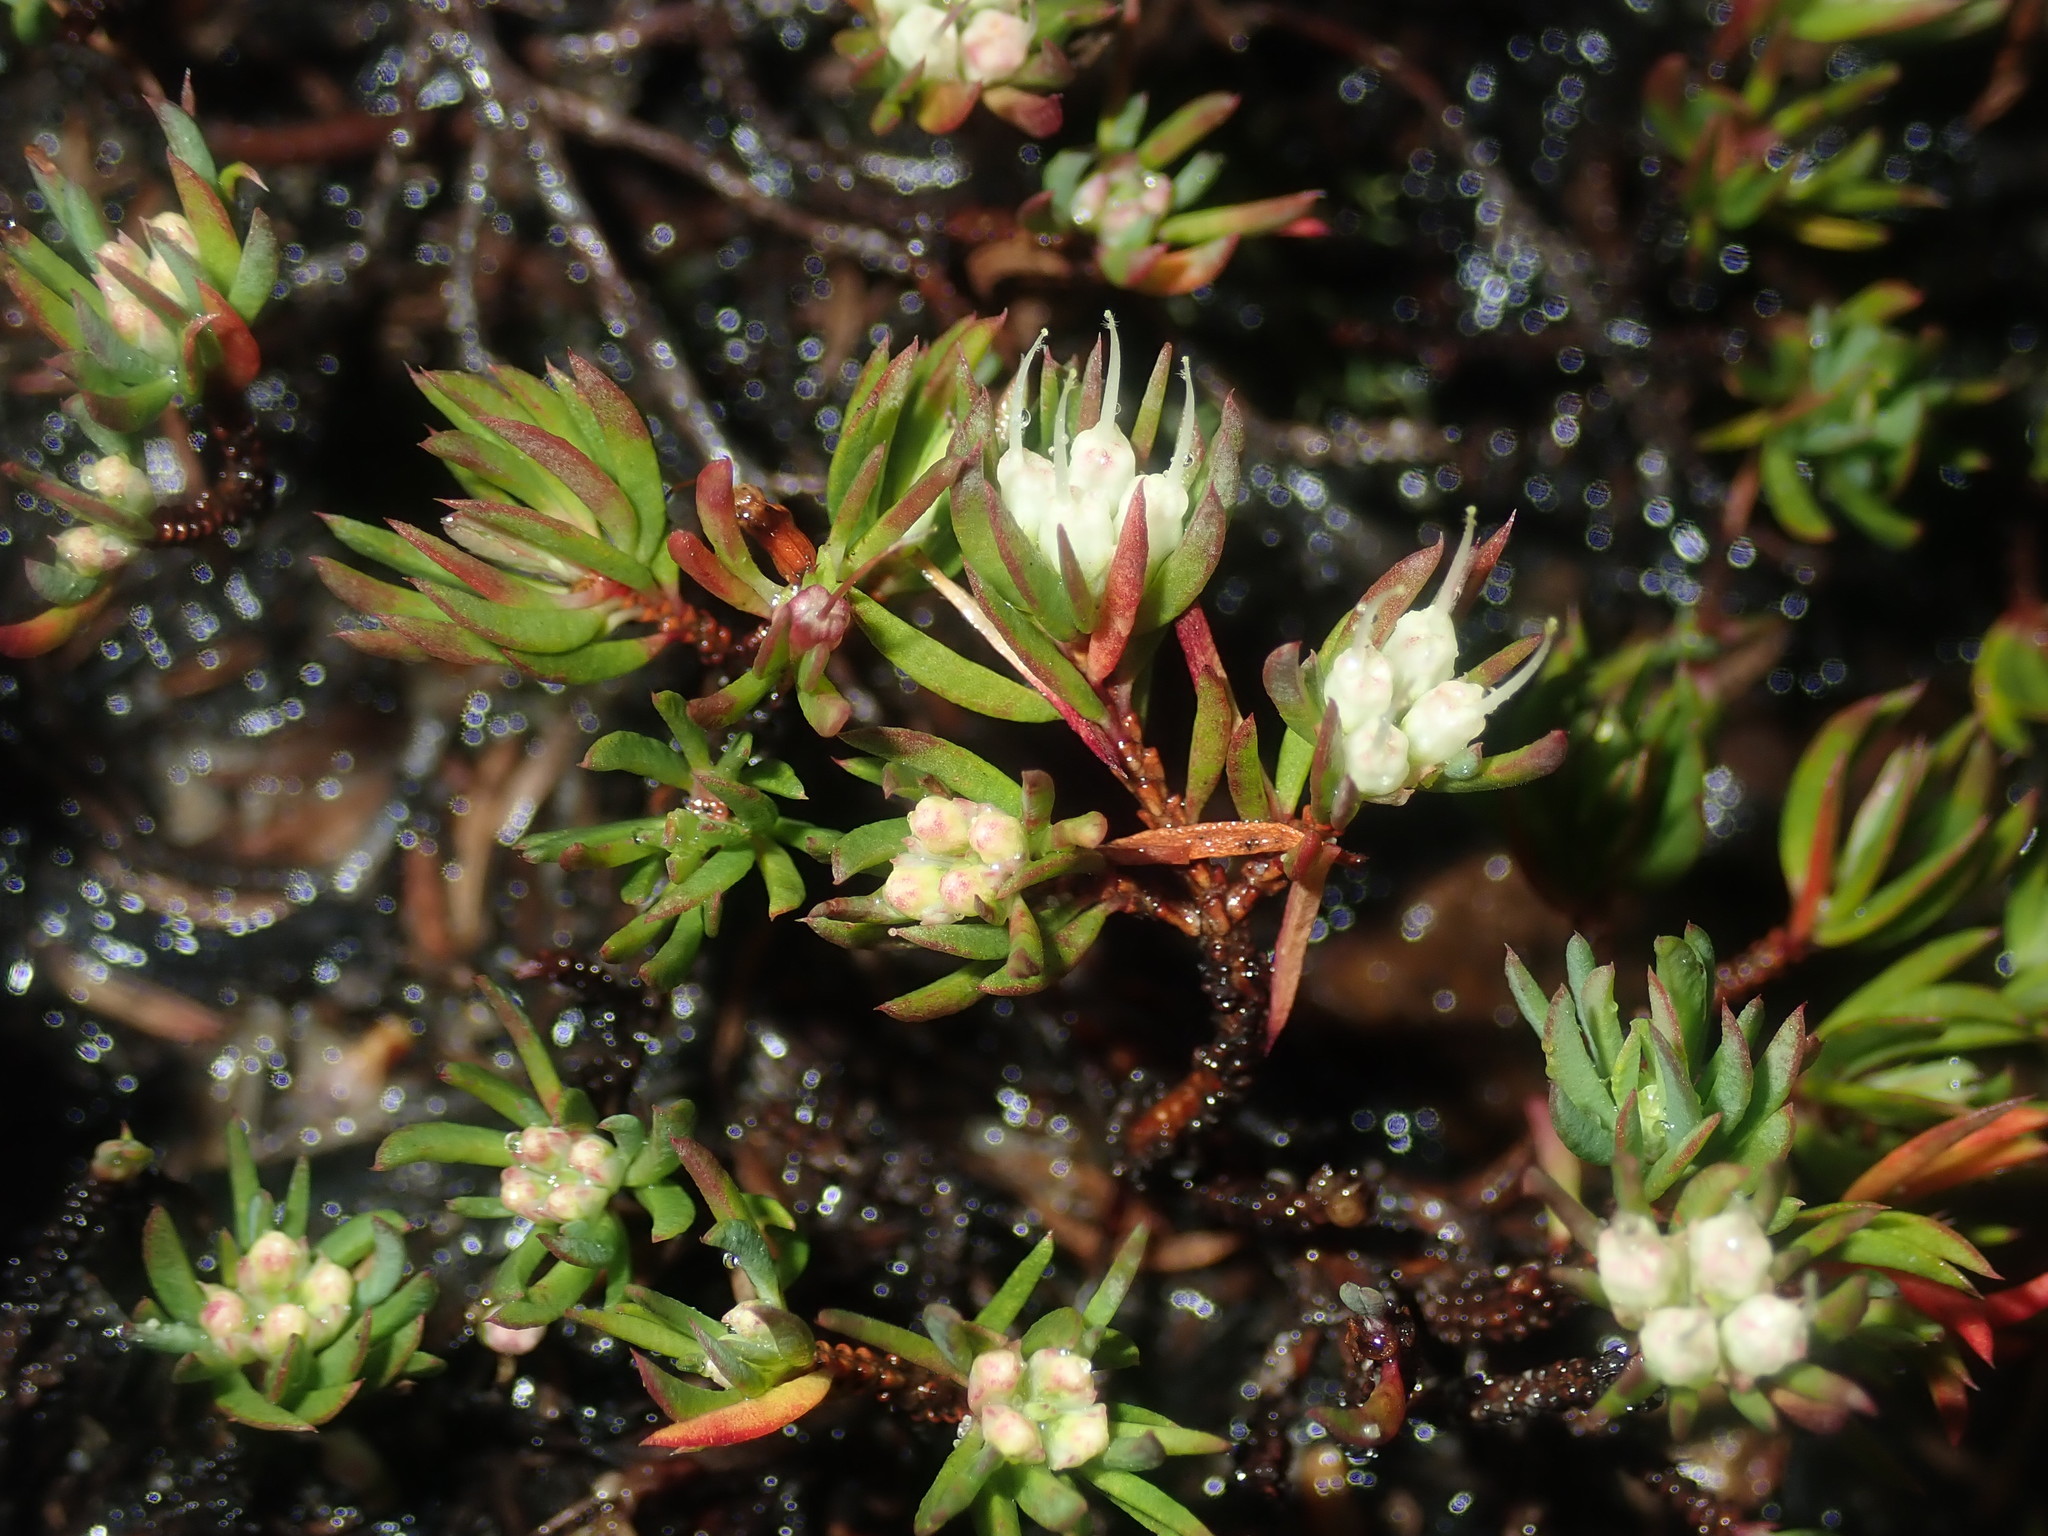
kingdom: Plantae
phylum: Tracheophyta
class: Magnoliopsida
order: Myrtales
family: Myrtaceae
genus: Darwinia
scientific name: Darwinia diminuta
